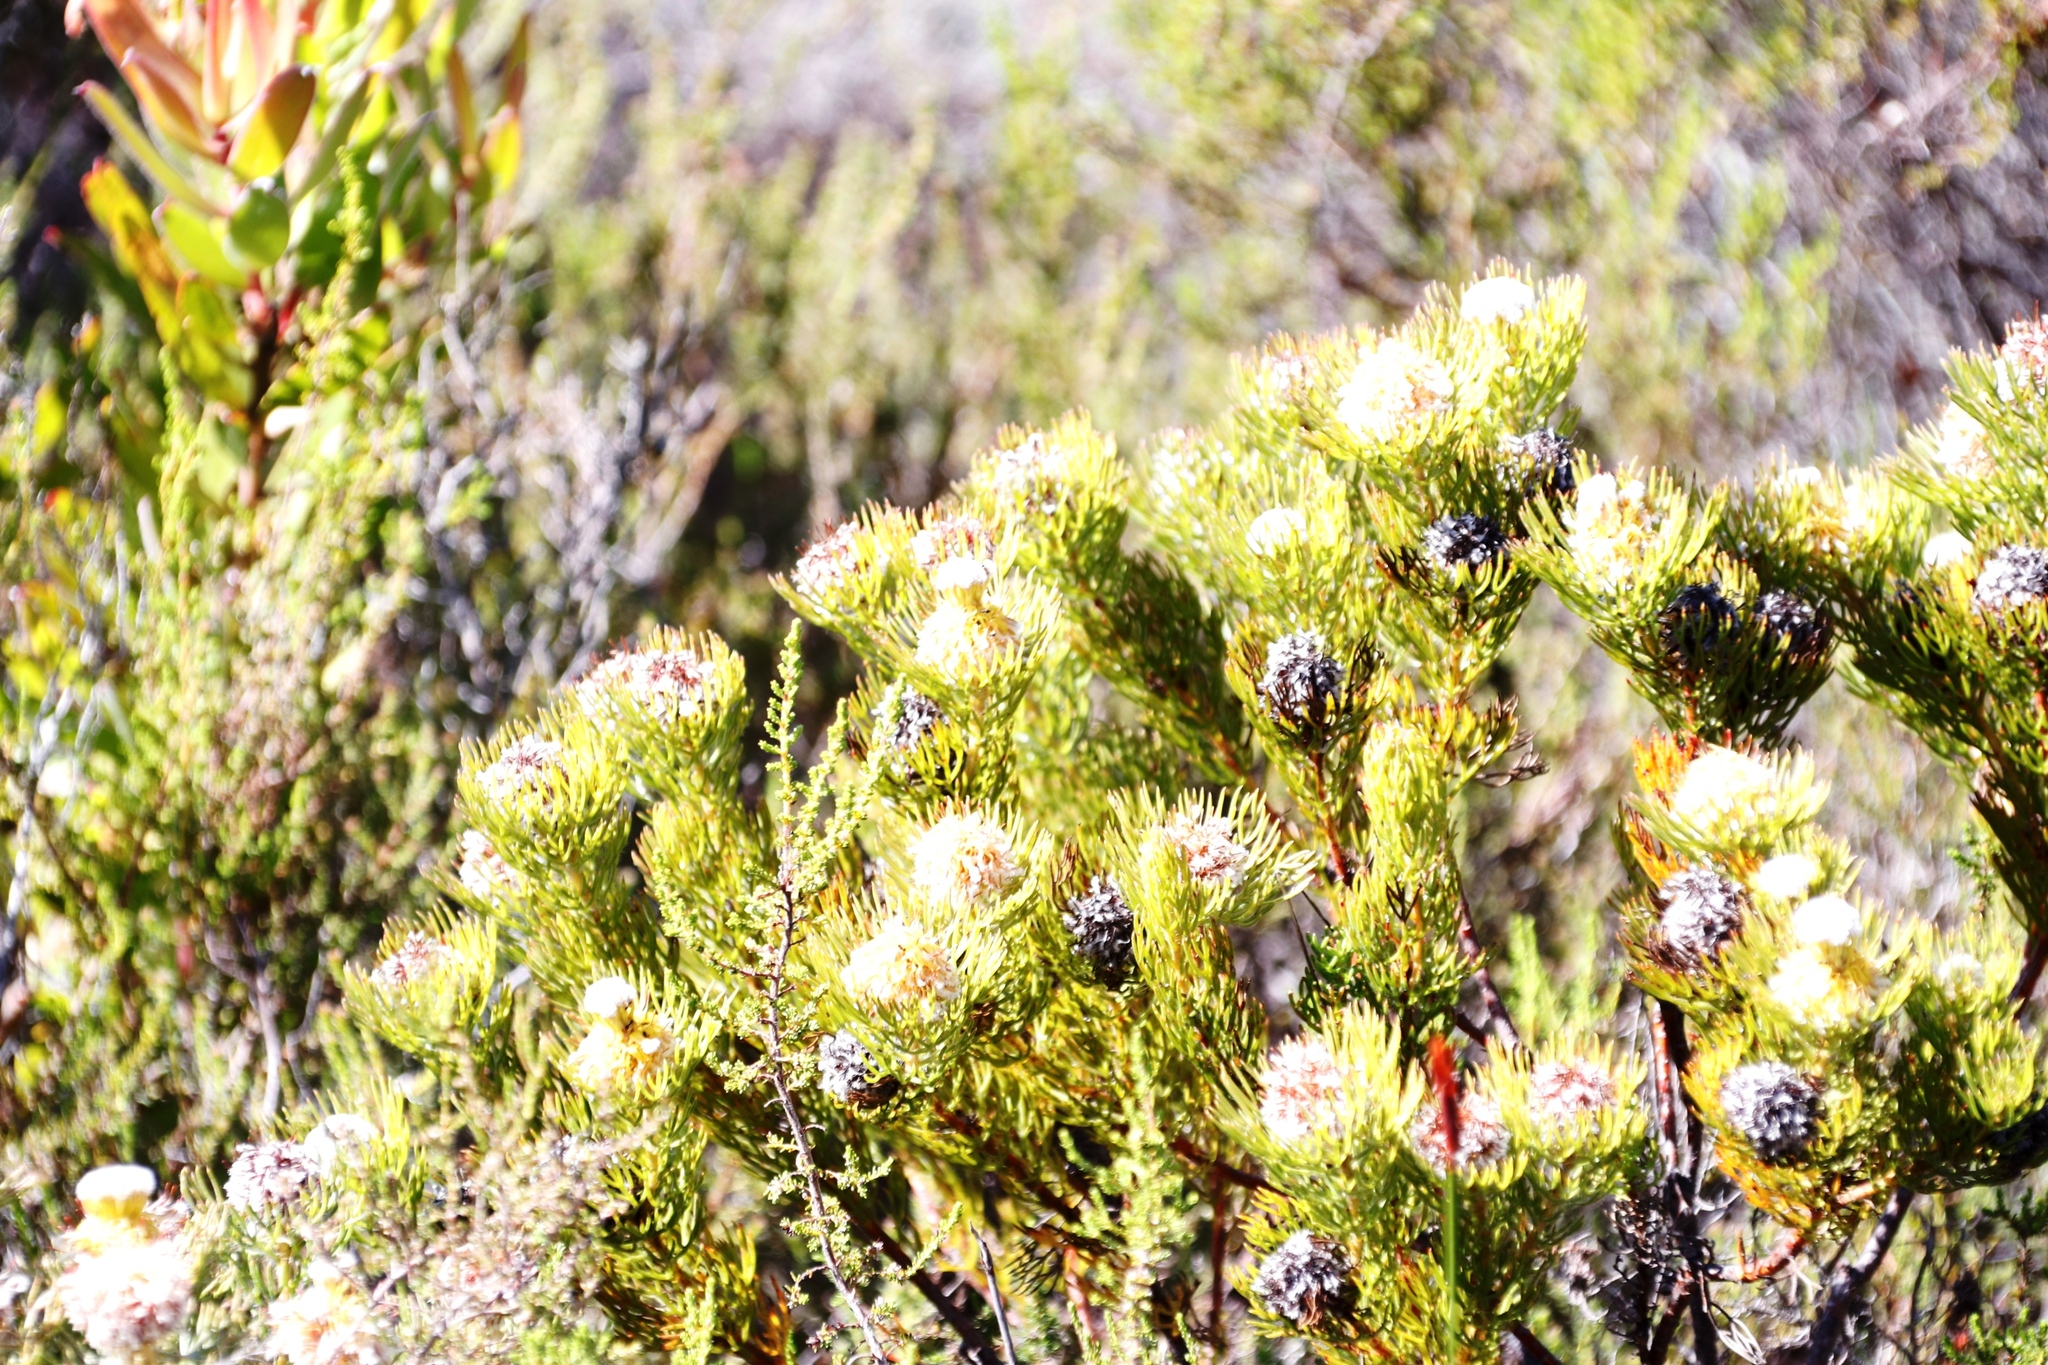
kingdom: Plantae
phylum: Tracheophyta
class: Magnoliopsida
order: Proteales
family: Proteaceae
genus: Serruria
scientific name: Serruria villosa
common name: Golden spiderhead
